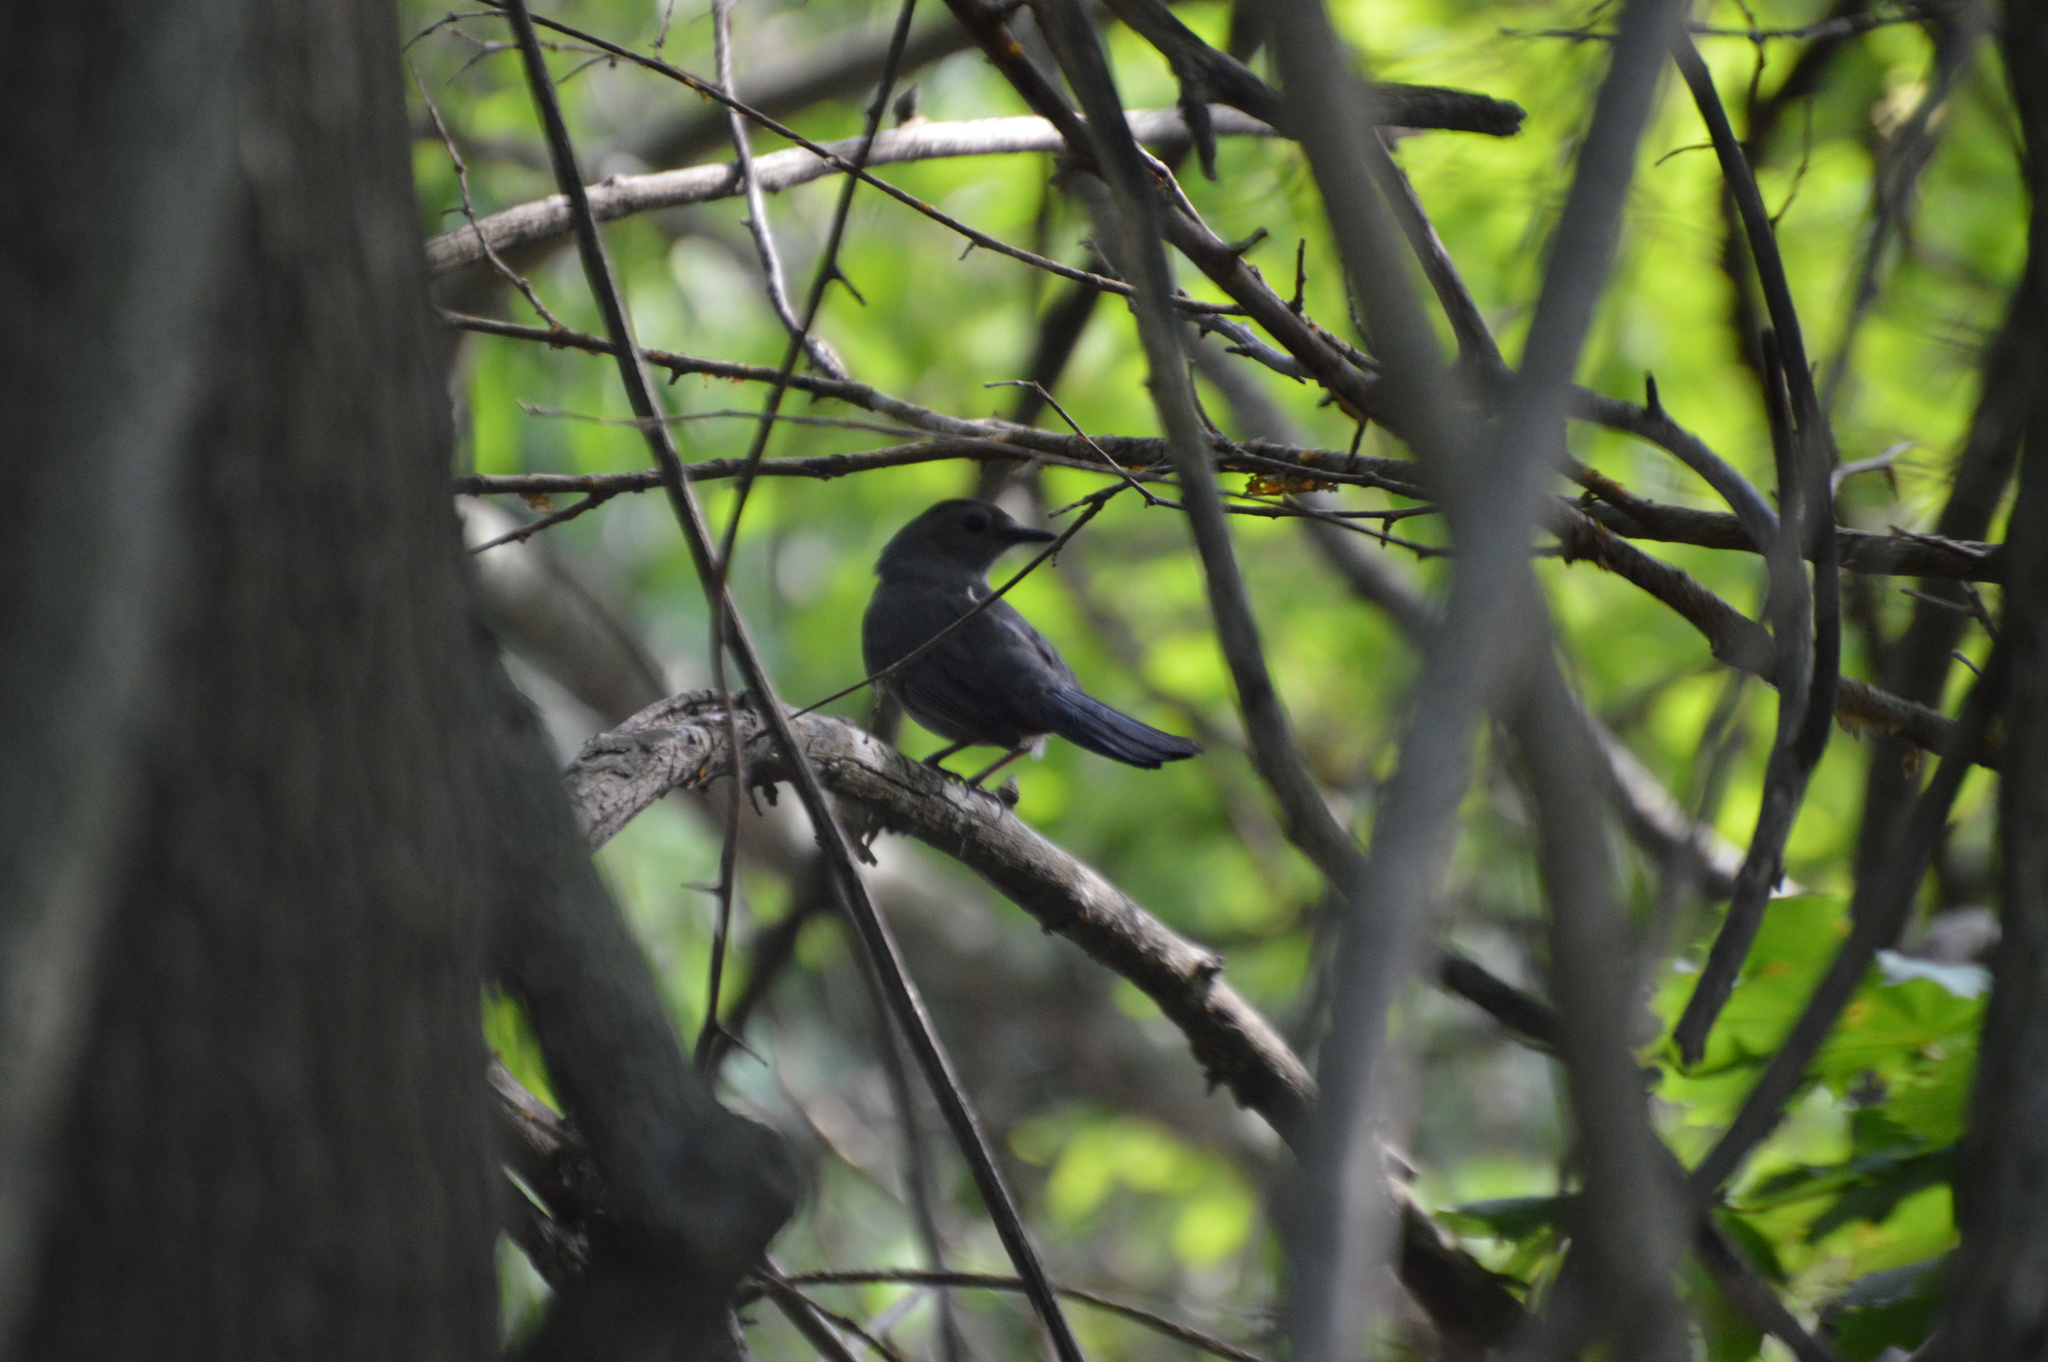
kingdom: Animalia
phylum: Chordata
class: Aves
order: Passeriformes
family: Mimidae
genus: Dumetella
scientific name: Dumetella carolinensis
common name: Gray catbird
